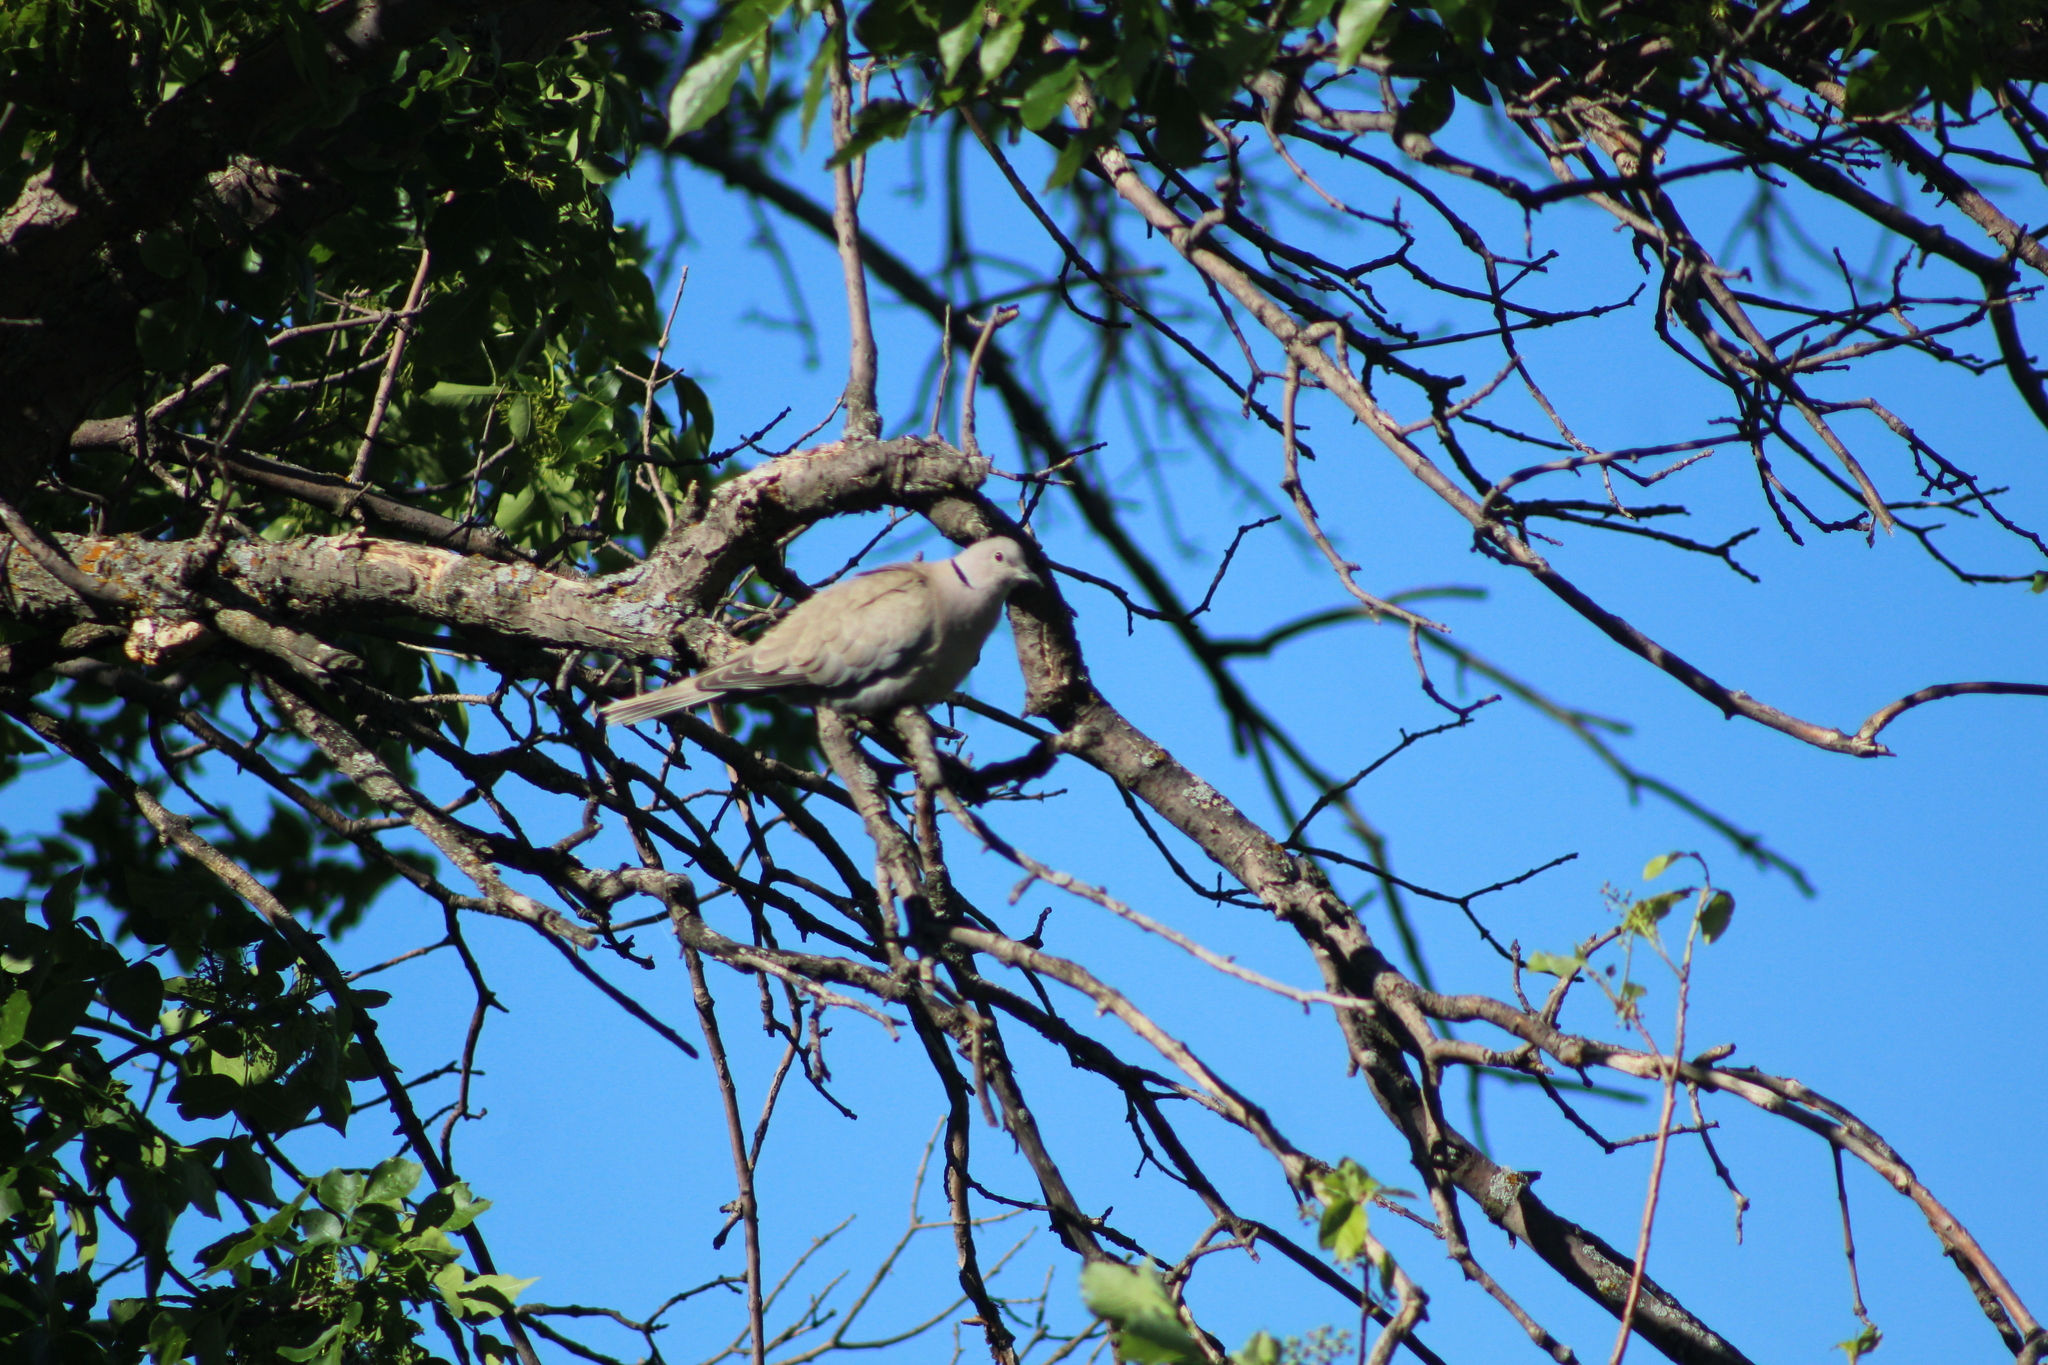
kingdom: Animalia
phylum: Chordata
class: Aves
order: Columbiformes
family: Columbidae
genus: Streptopelia
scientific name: Streptopelia decaocto
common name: Eurasian collared dove
